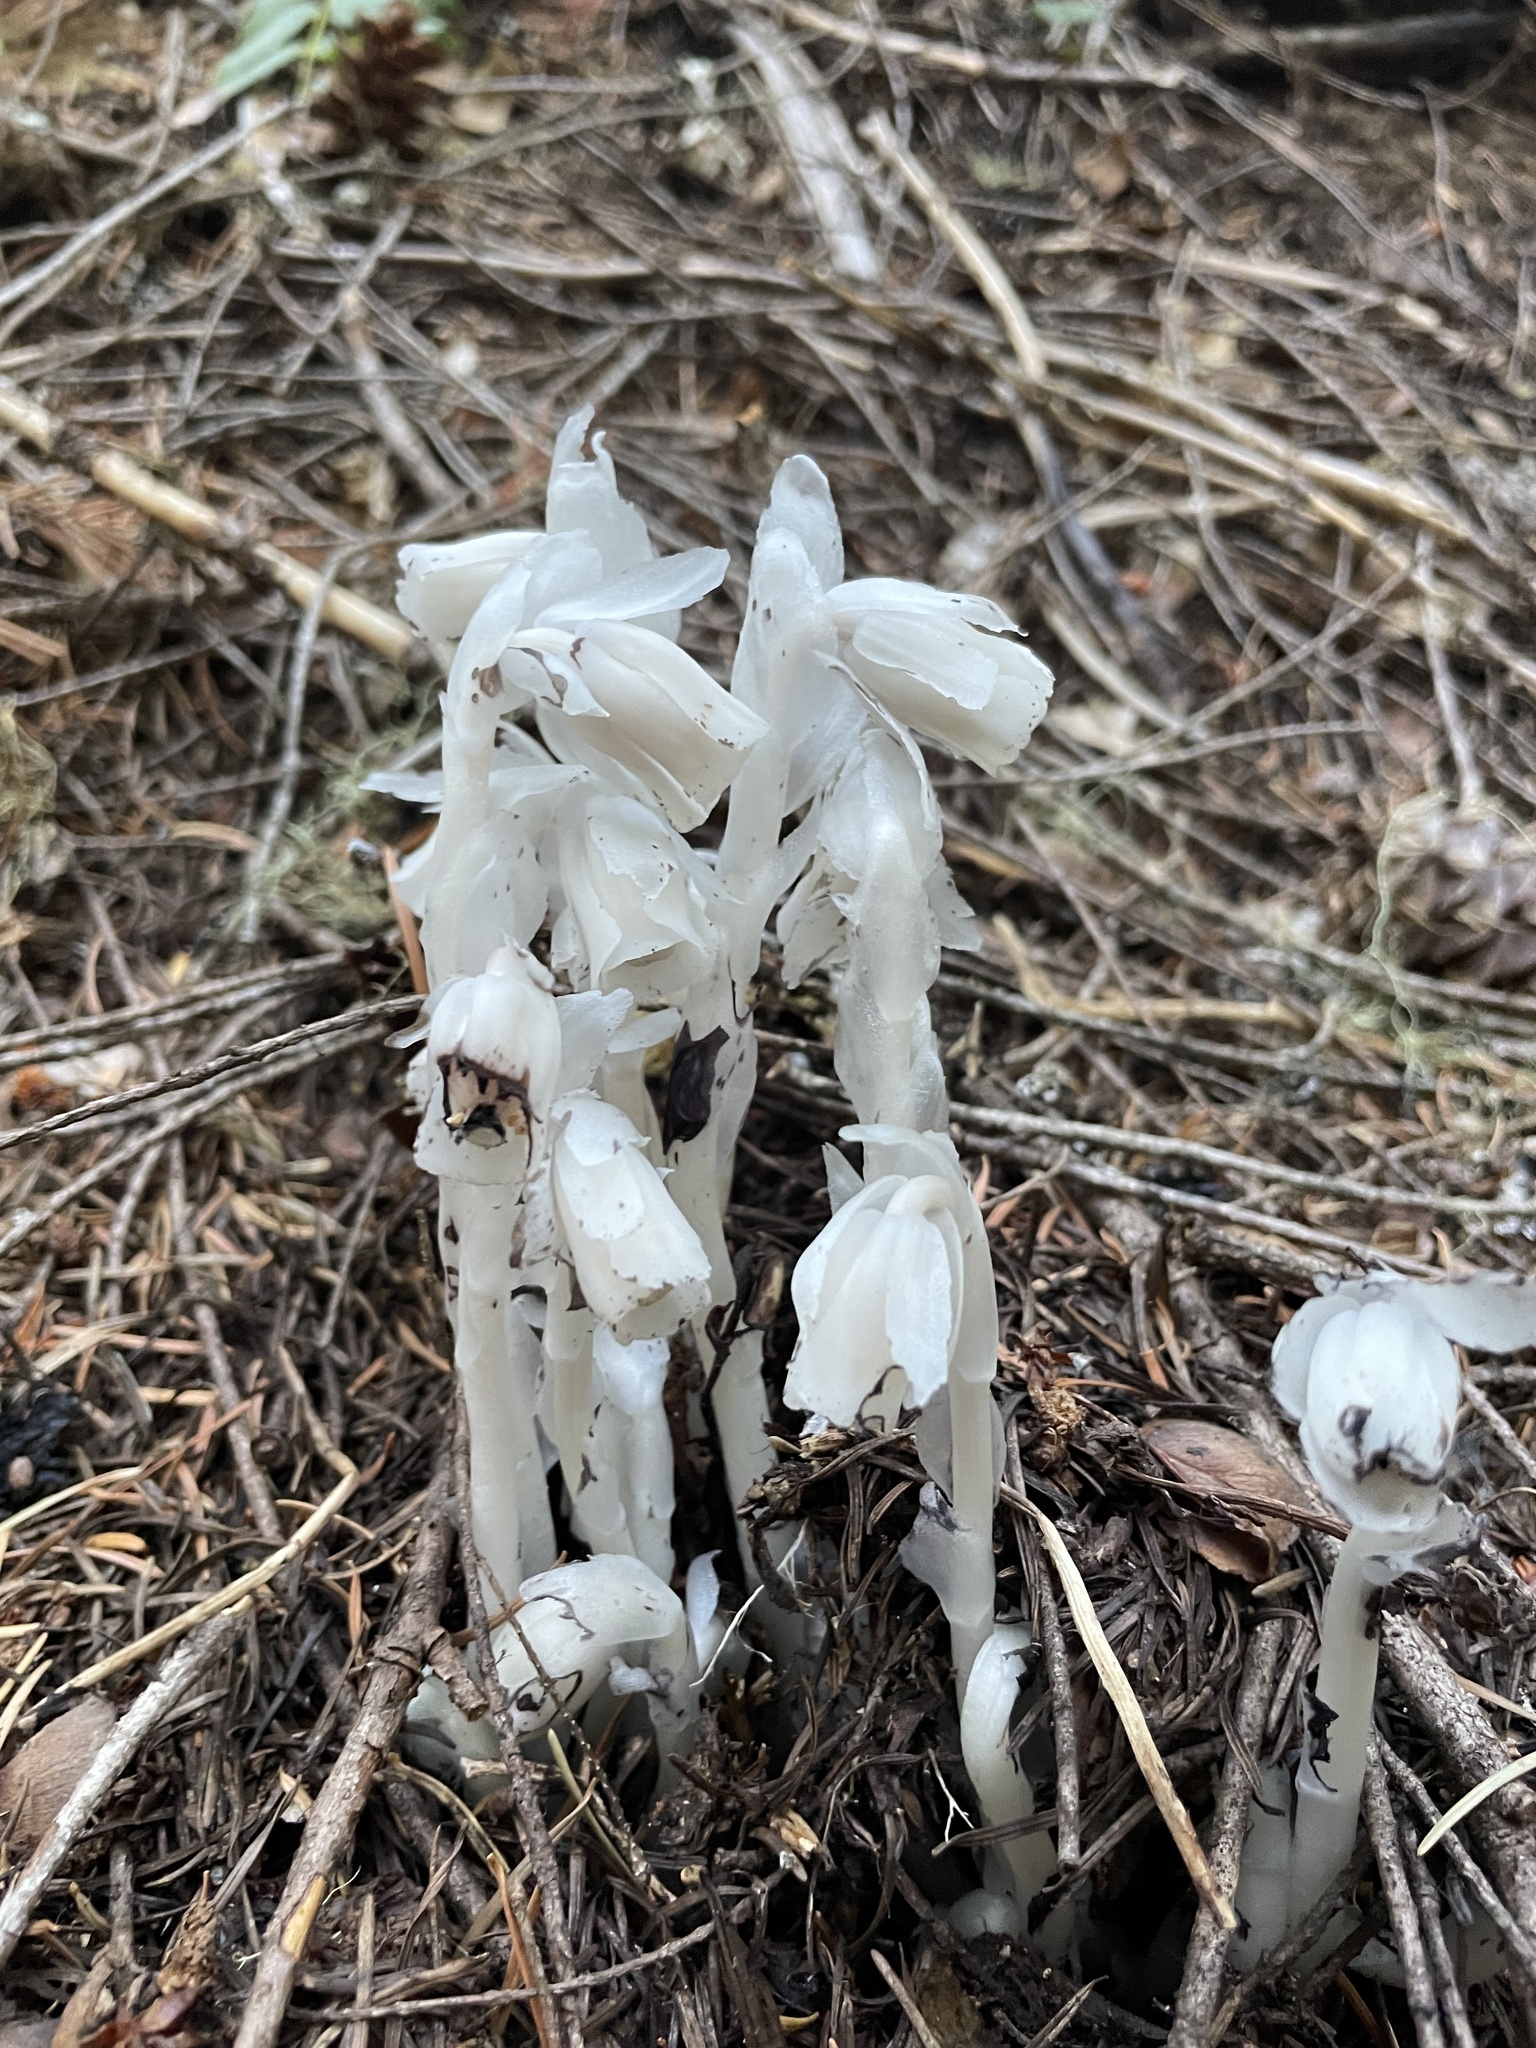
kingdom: Plantae
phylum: Tracheophyta
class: Magnoliopsida
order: Ericales
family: Ericaceae
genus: Monotropa
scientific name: Monotropa uniflora
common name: Convulsion root
